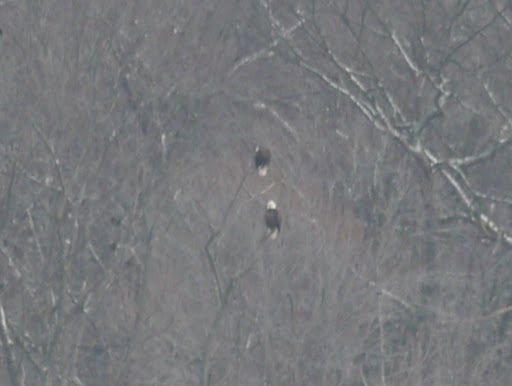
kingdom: Animalia
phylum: Chordata
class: Aves
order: Accipitriformes
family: Accipitridae
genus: Haliaeetus
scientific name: Haliaeetus leucocephalus
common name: Bald eagle
